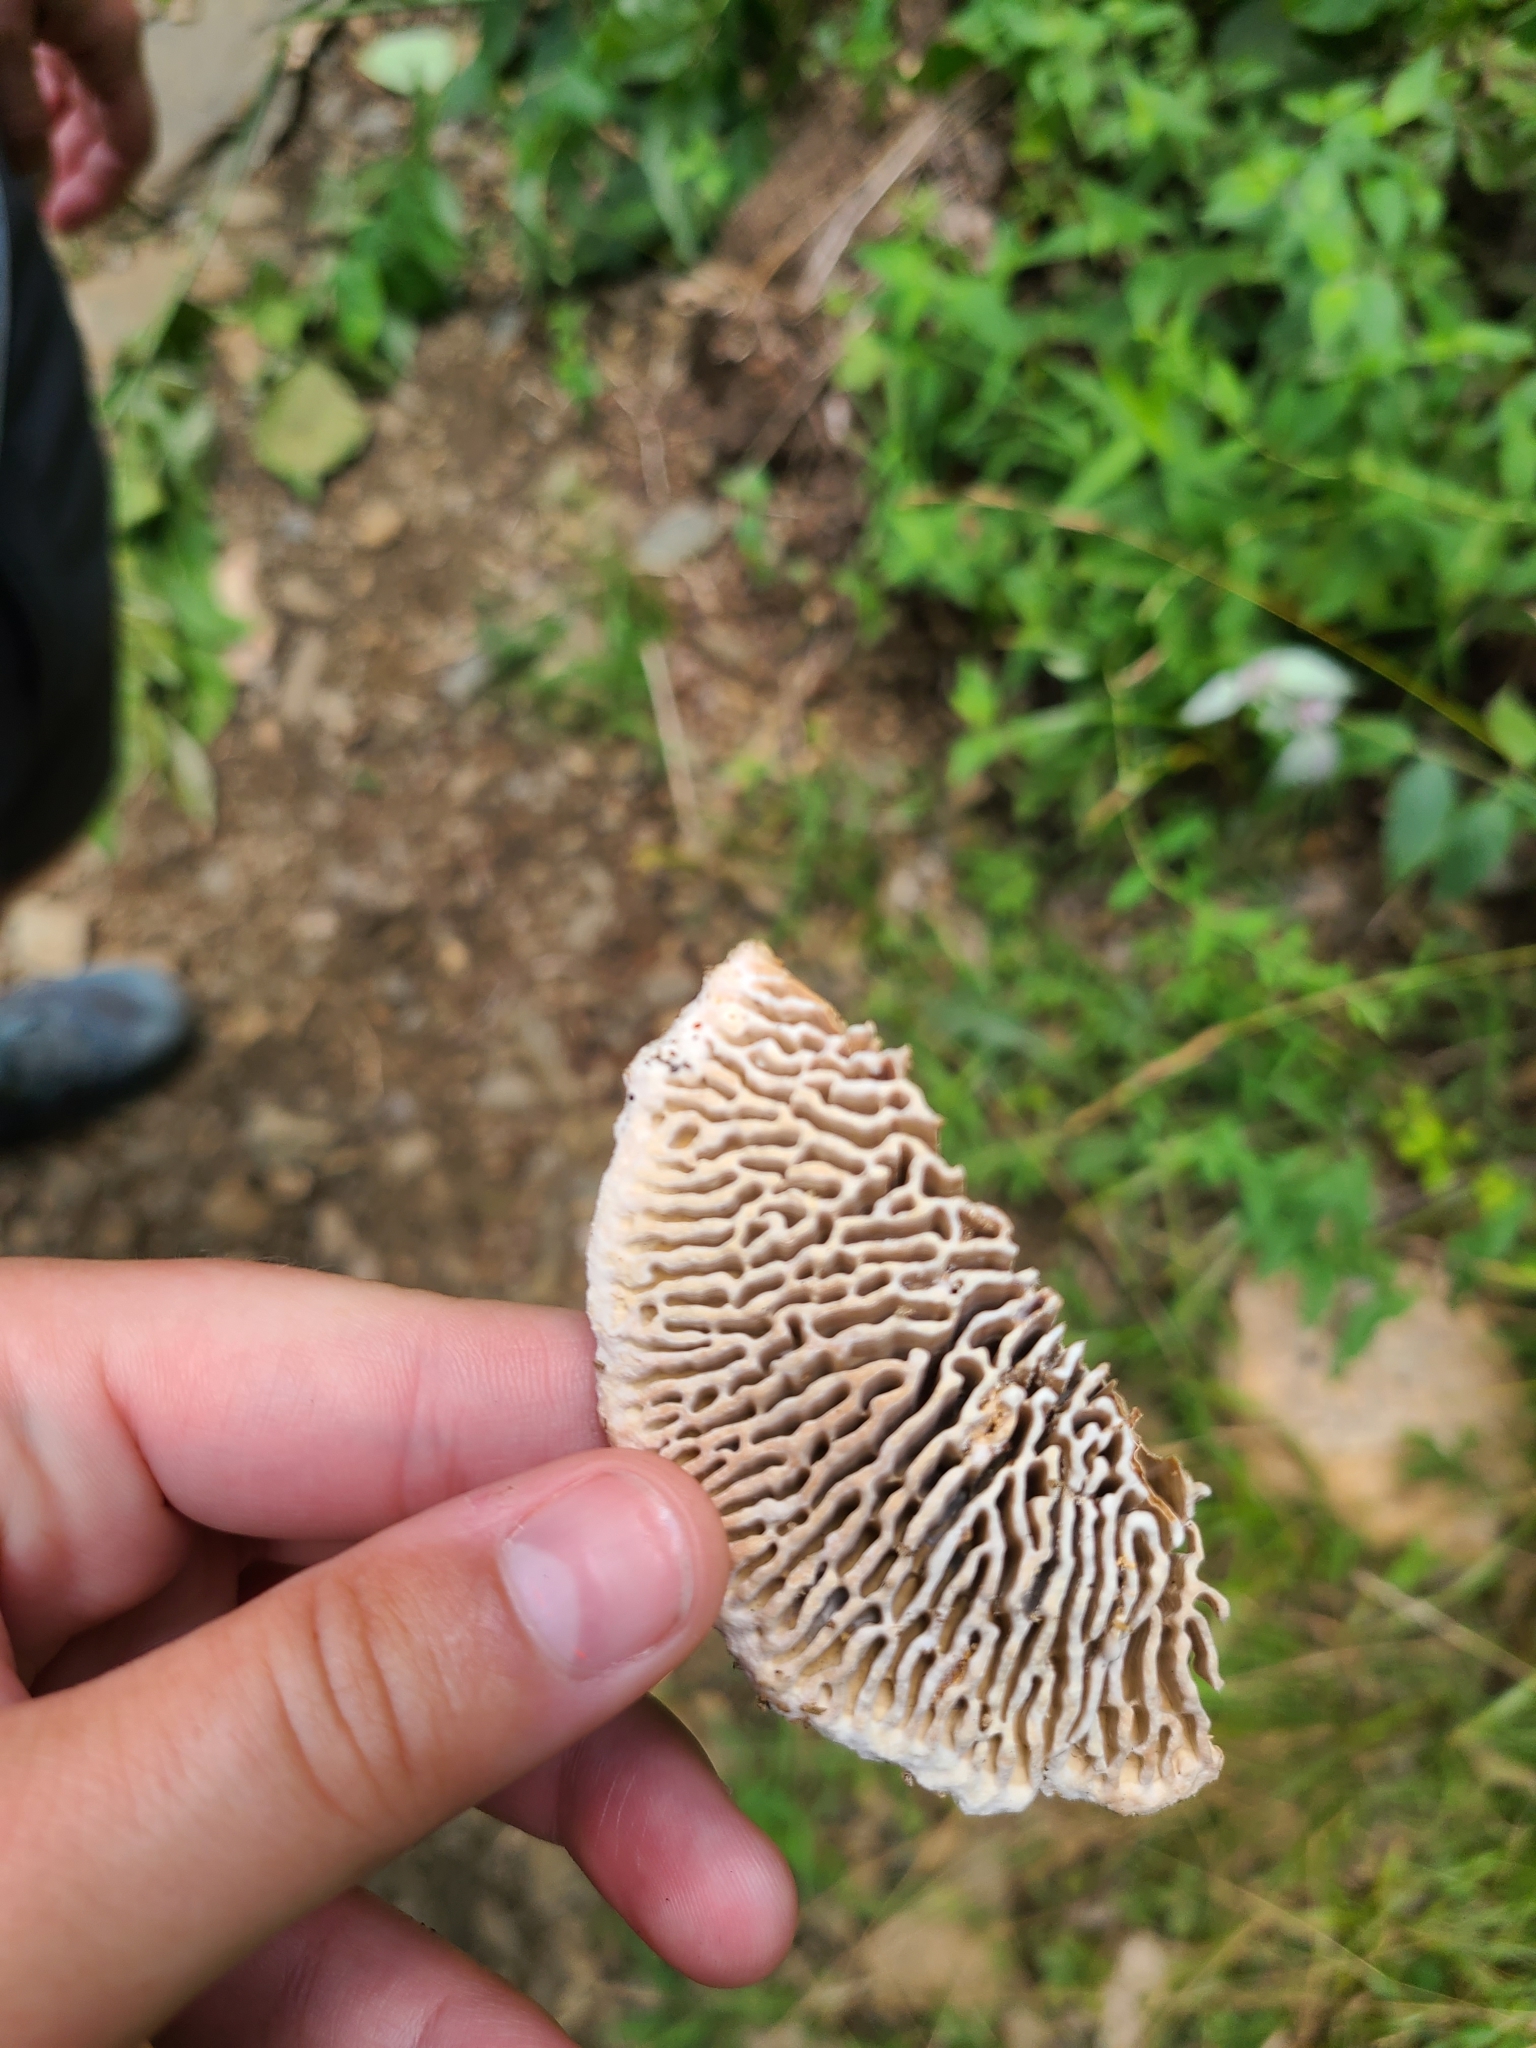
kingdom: Fungi
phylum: Basidiomycota
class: Agaricomycetes
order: Polyporales
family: Fomitopsidaceae
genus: Fomitopsis
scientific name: Fomitopsis
